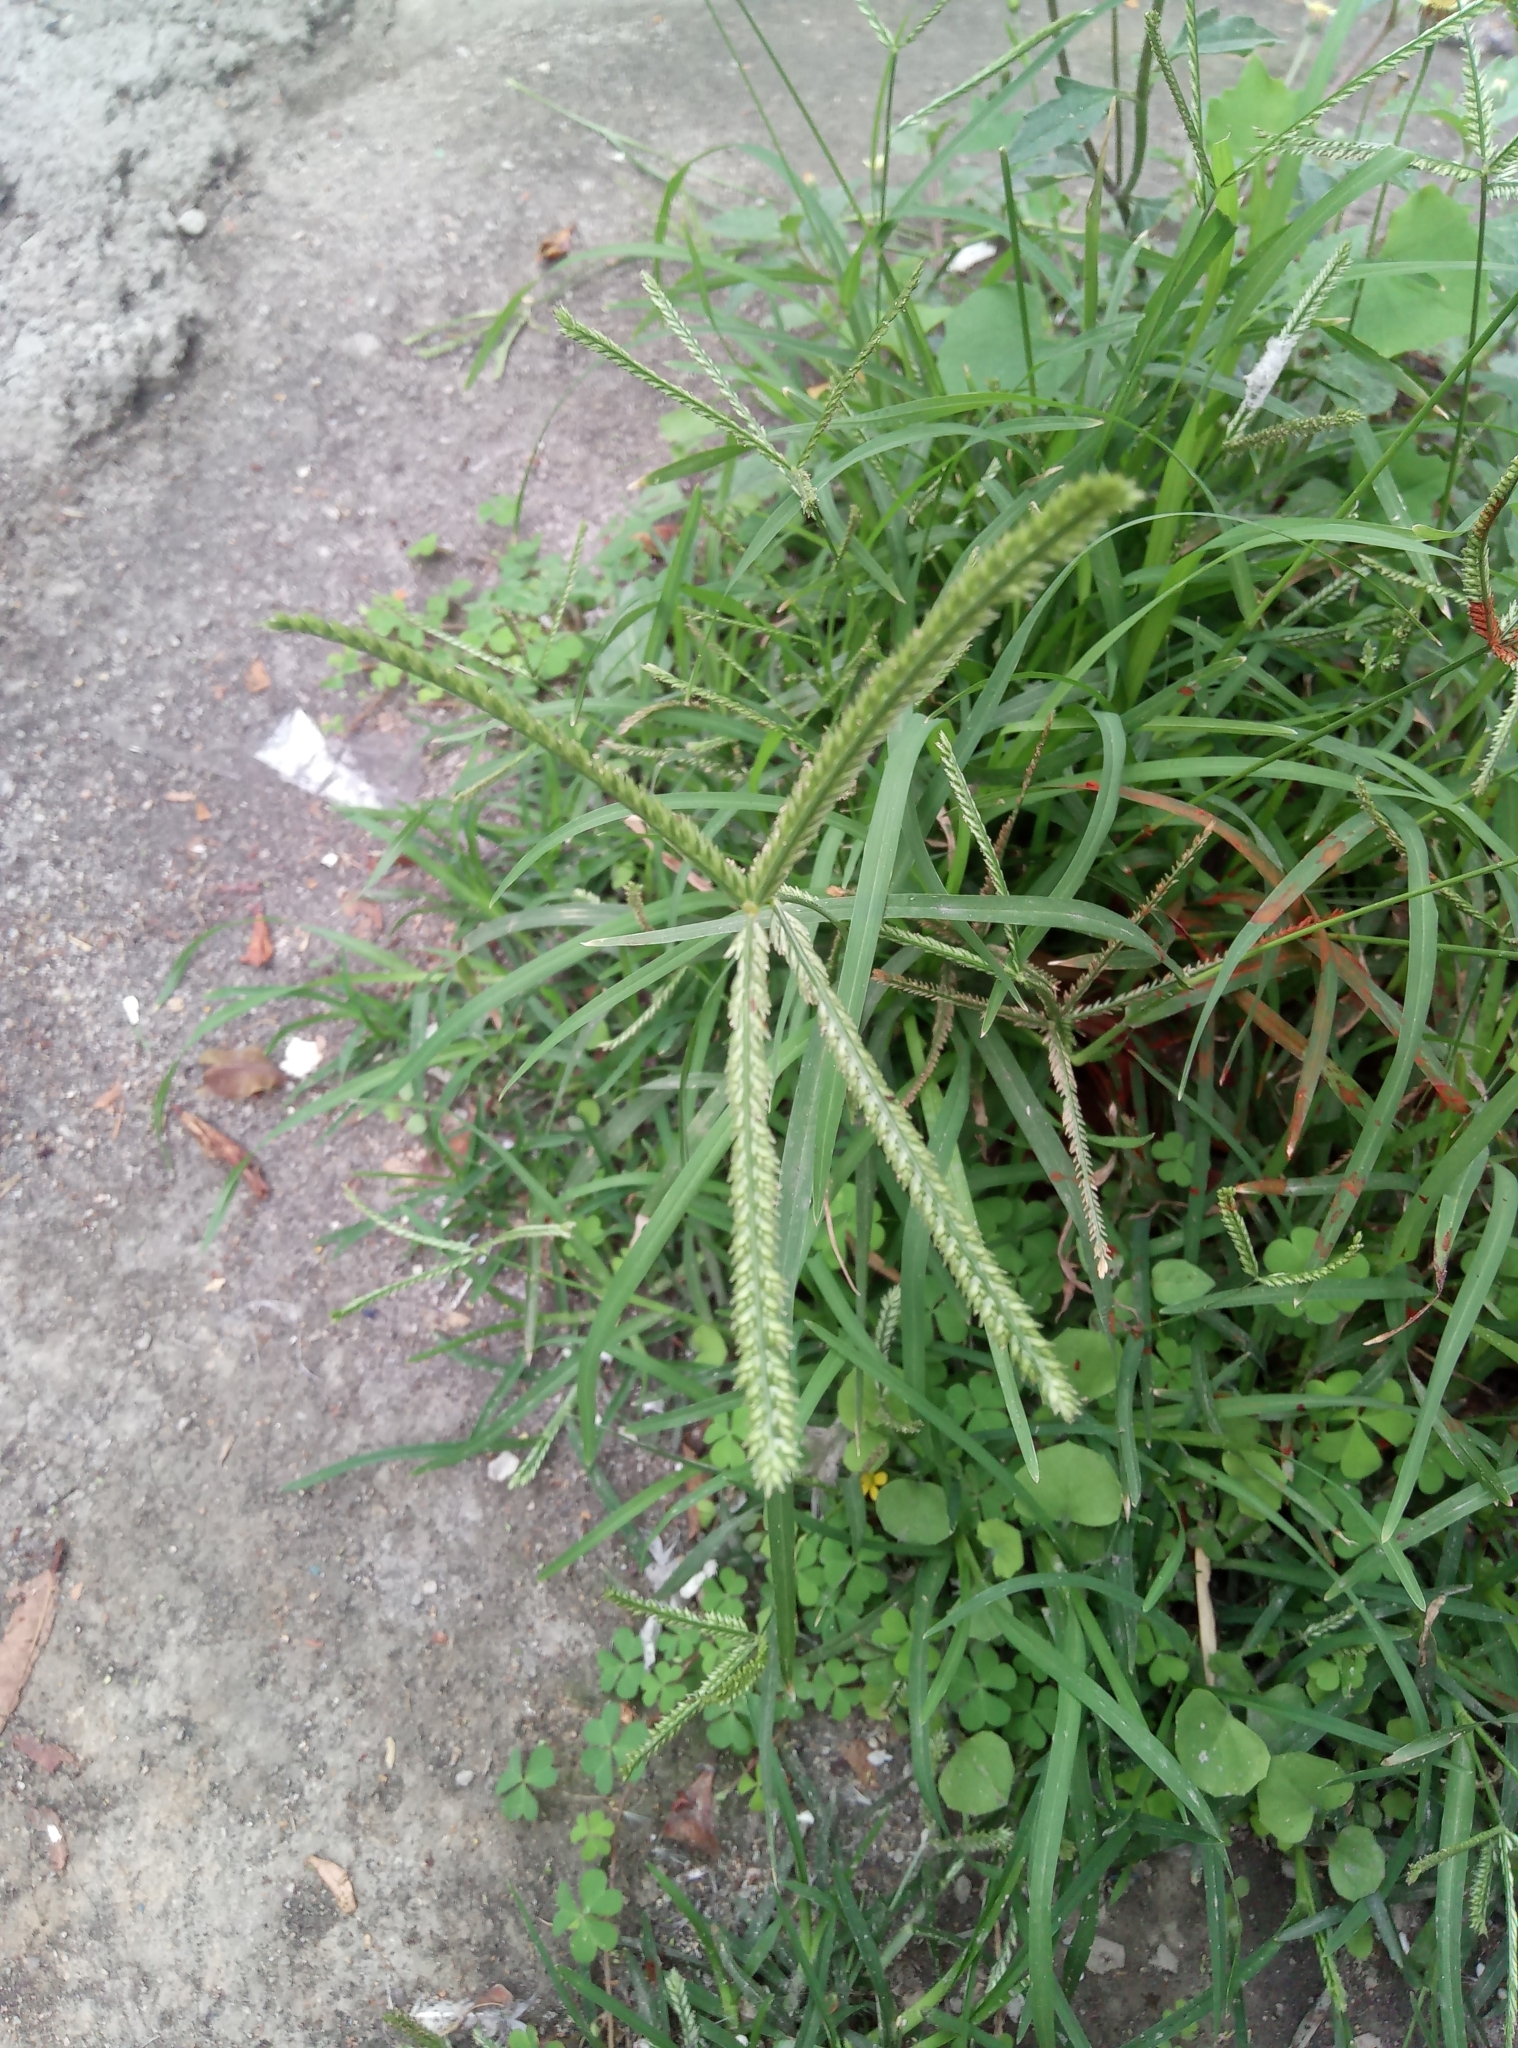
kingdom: Plantae
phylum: Tracheophyta
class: Liliopsida
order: Poales
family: Poaceae
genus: Eleusine
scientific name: Eleusine indica
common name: Yard-grass
